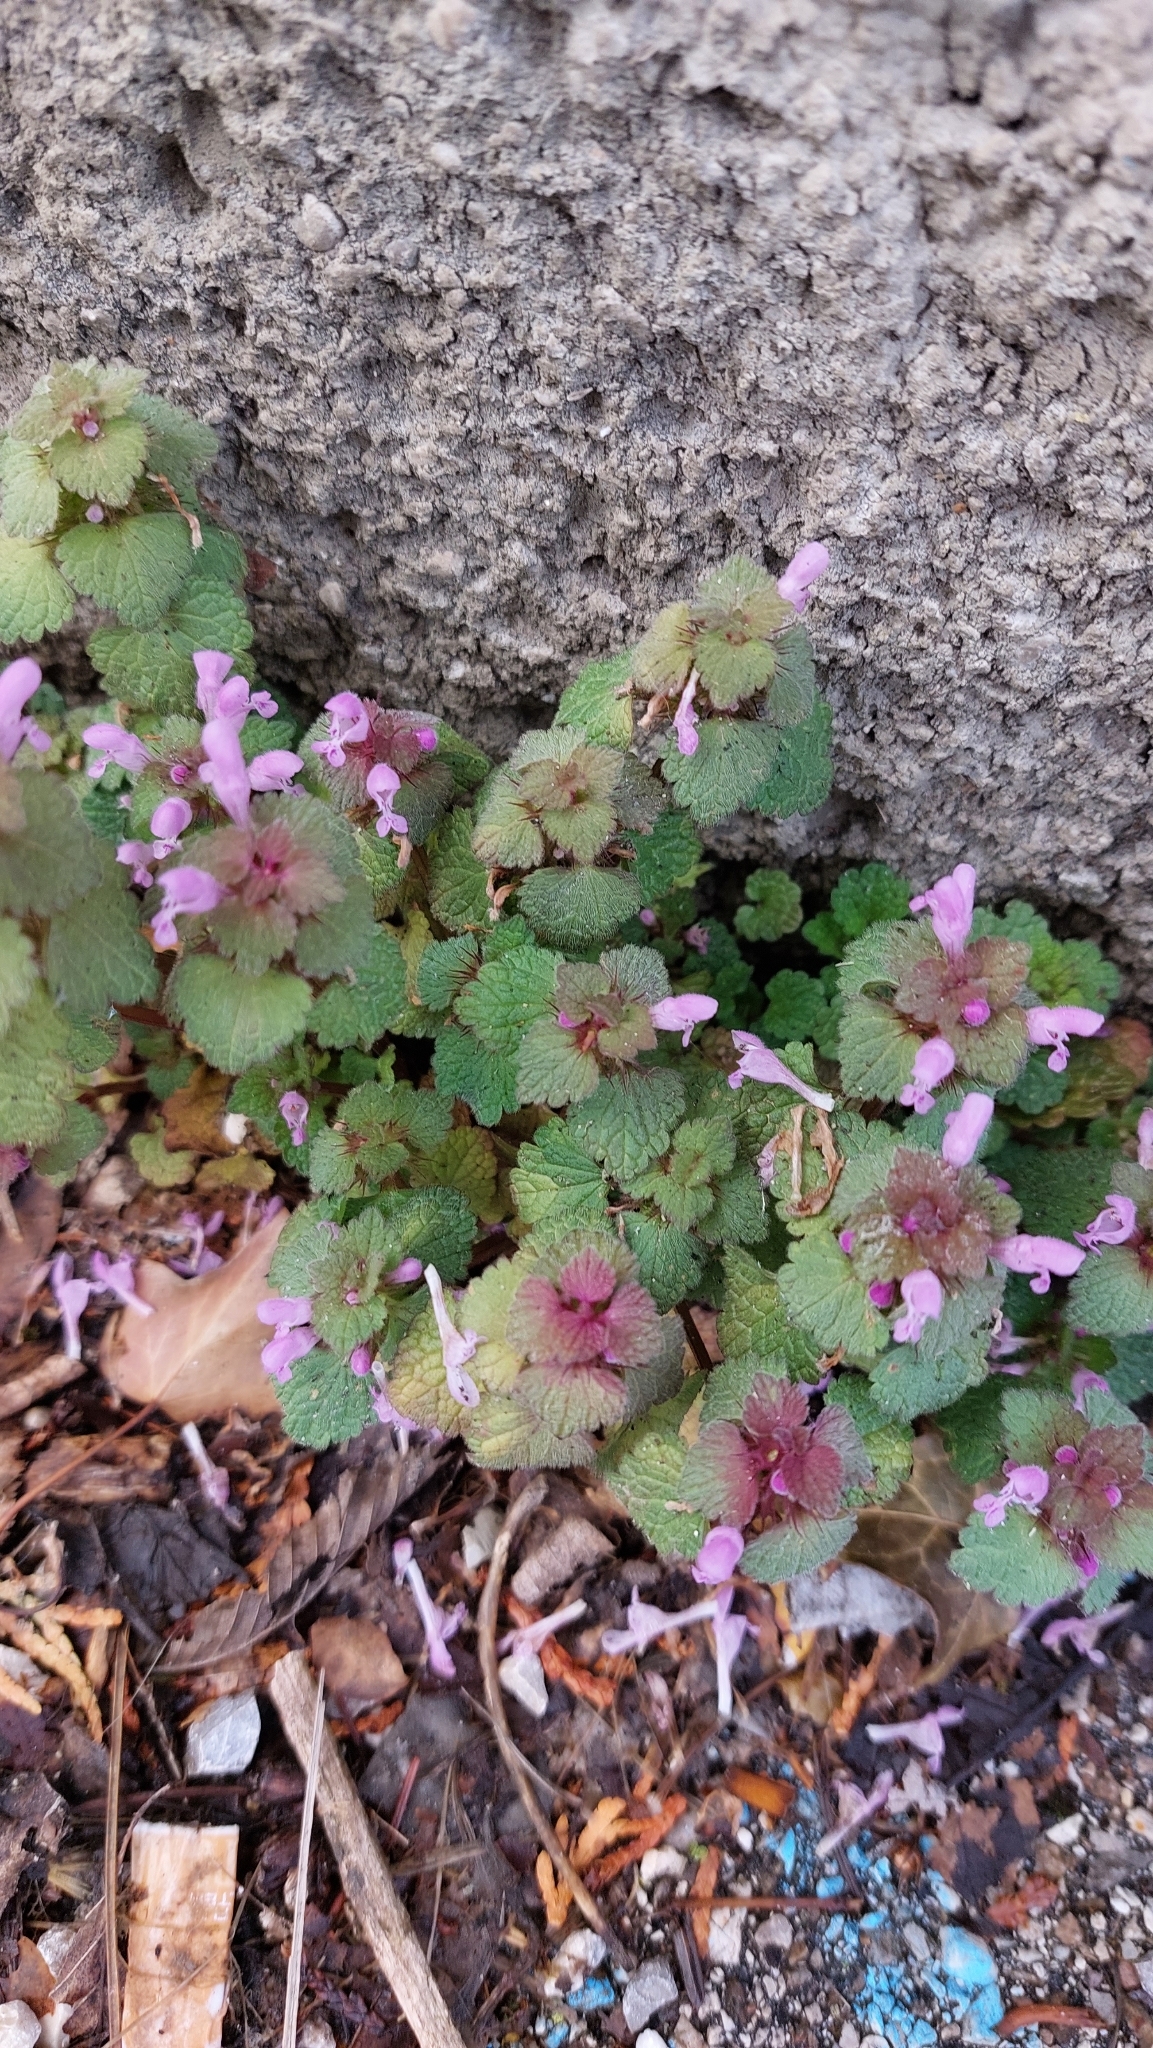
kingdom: Plantae
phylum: Tracheophyta
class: Magnoliopsida
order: Lamiales
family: Lamiaceae
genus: Lamium
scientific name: Lamium purpureum
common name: Red dead-nettle
